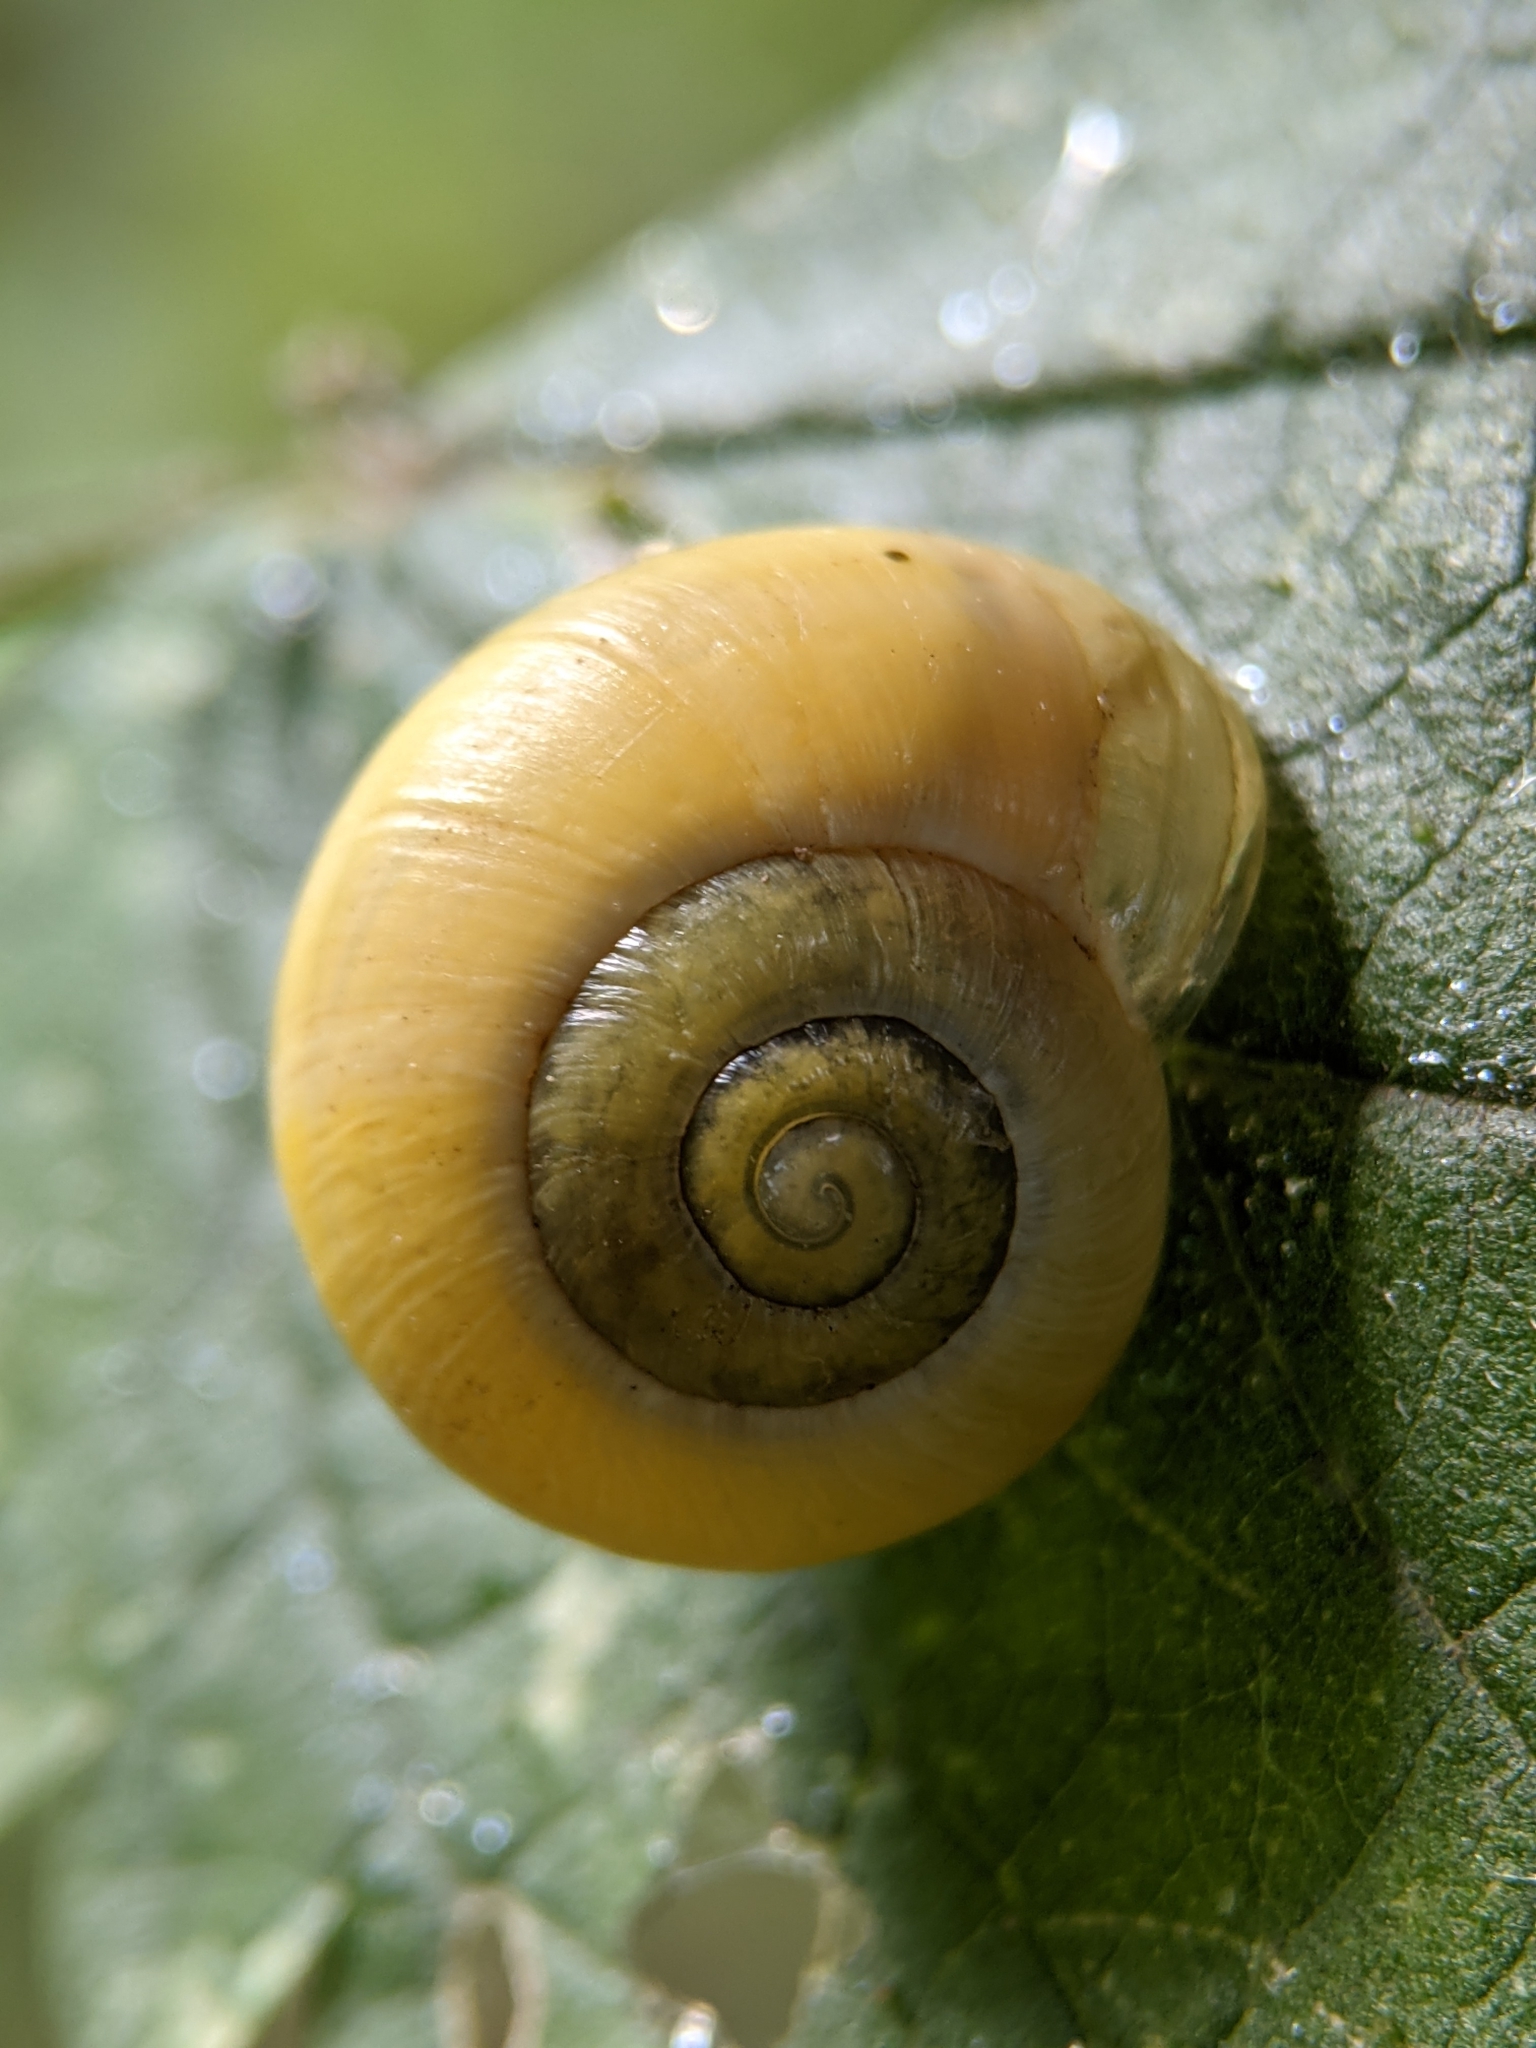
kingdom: Animalia
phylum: Mollusca
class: Gastropoda
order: Stylommatophora
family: Helicidae
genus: Cepaea
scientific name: Cepaea
